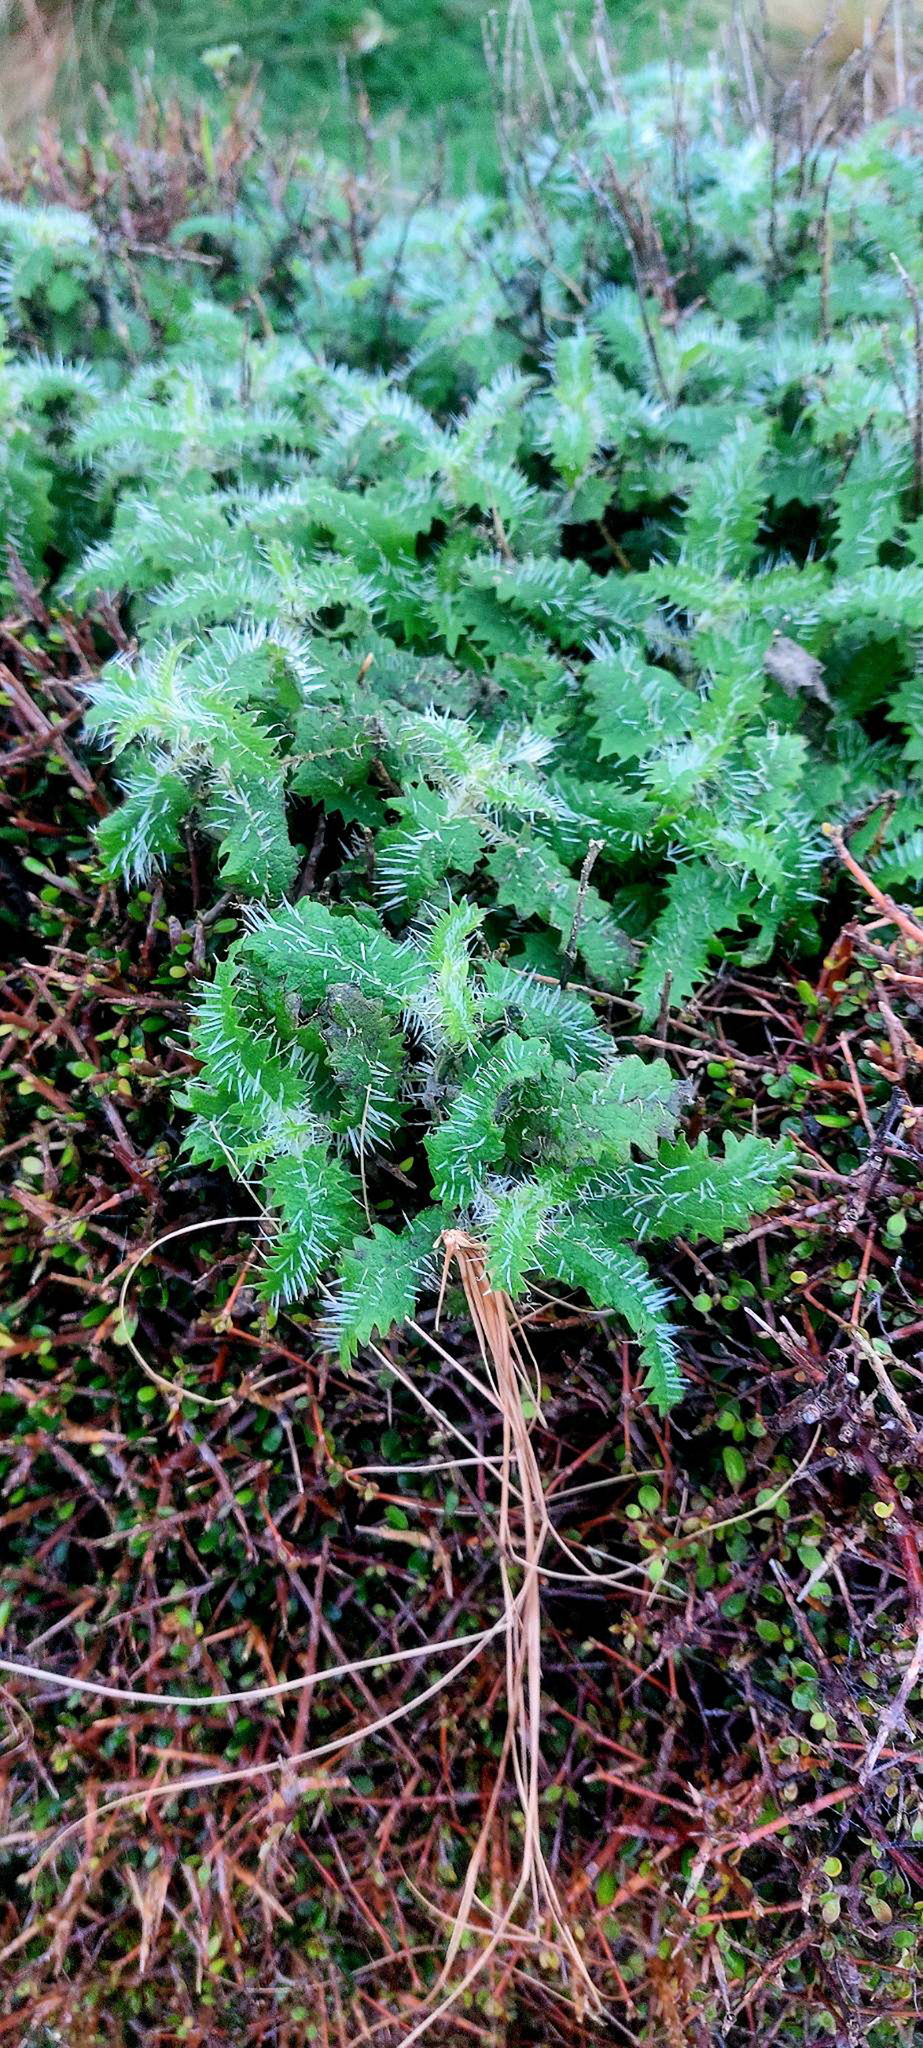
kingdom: Plantae
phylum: Tracheophyta
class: Magnoliopsida
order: Rosales
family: Urticaceae
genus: Urtica
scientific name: Urtica ferox
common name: Tree nettle
